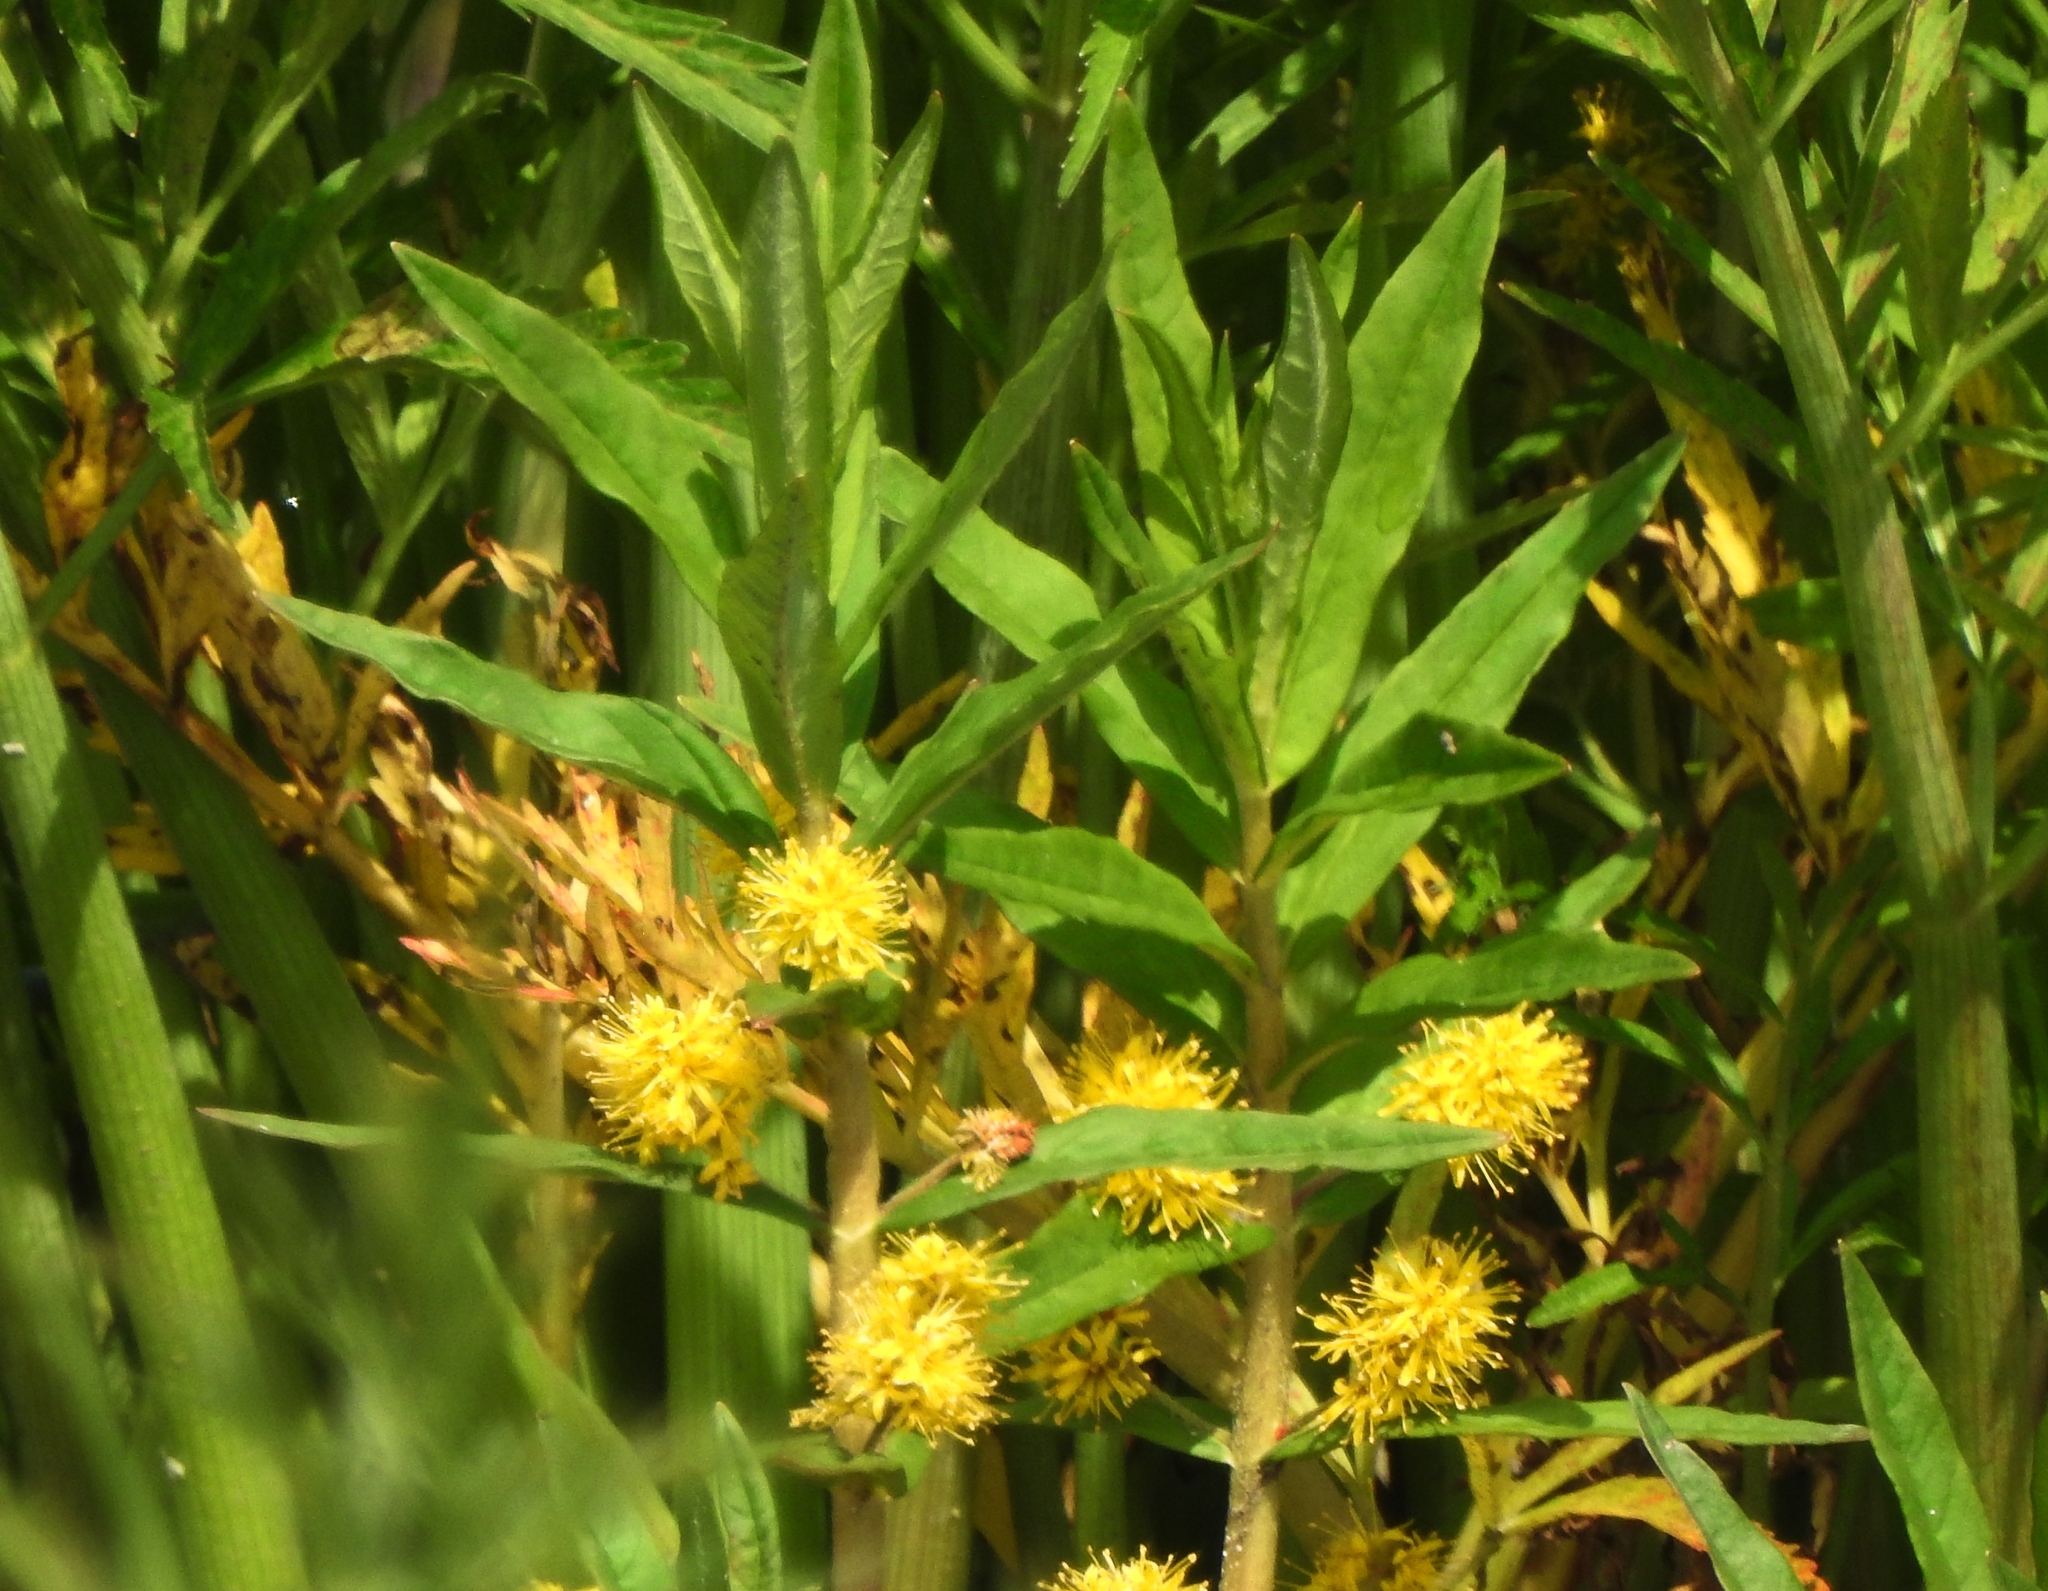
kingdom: Plantae
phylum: Tracheophyta
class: Magnoliopsida
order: Ericales
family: Primulaceae
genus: Lysimachia
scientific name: Lysimachia thyrsiflora
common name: Tufted loosestrife
